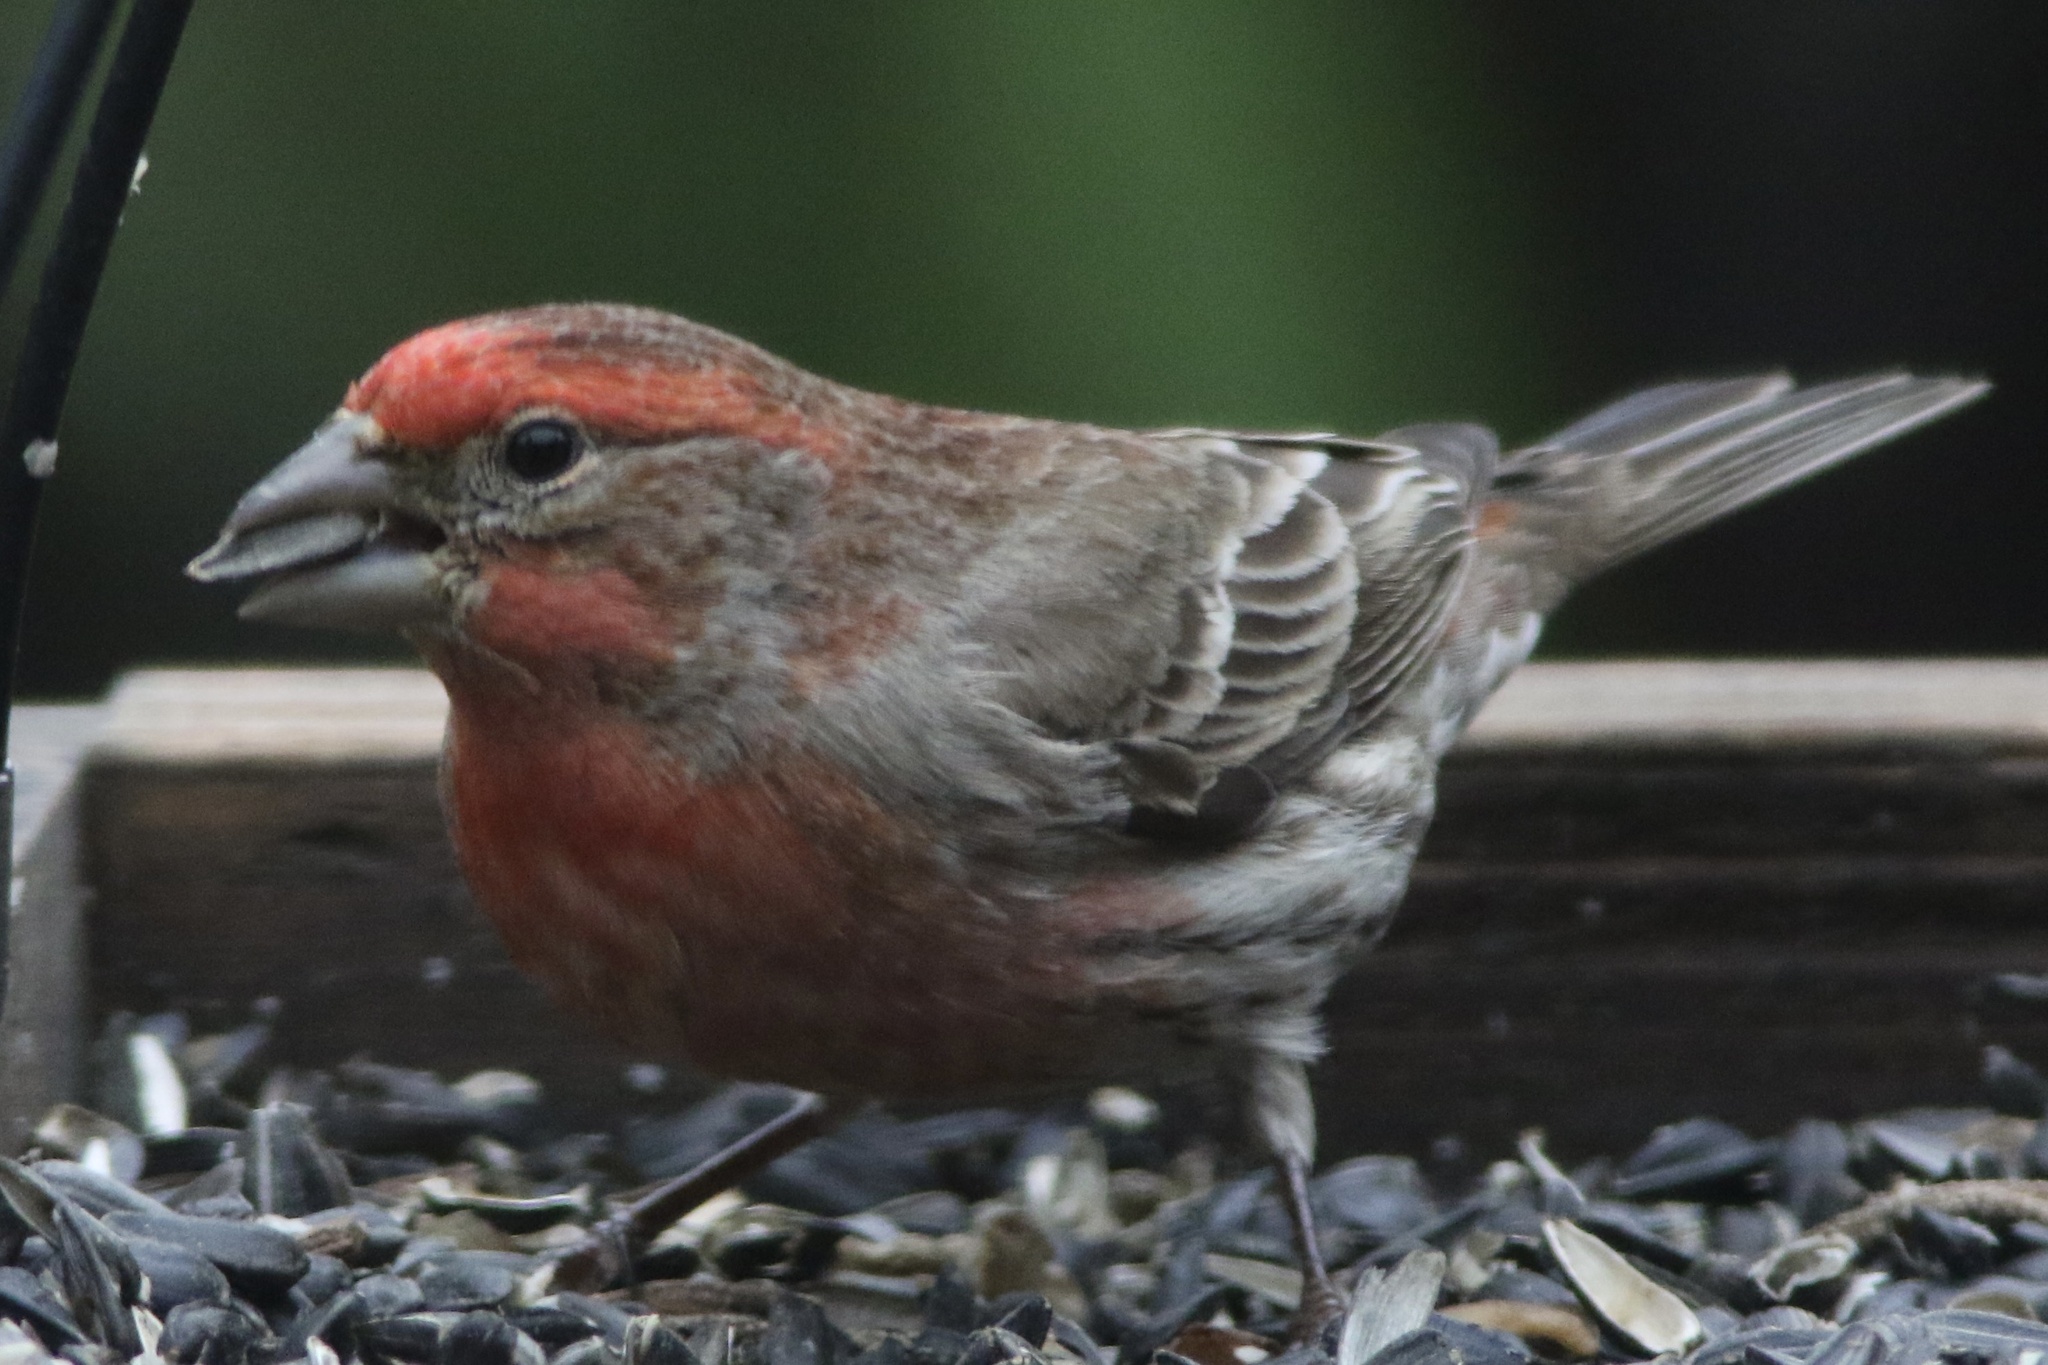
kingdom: Animalia
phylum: Chordata
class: Aves
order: Passeriformes
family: Fringillidae
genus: Haemorhous
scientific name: Haemorhous mexicanus
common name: House finch
